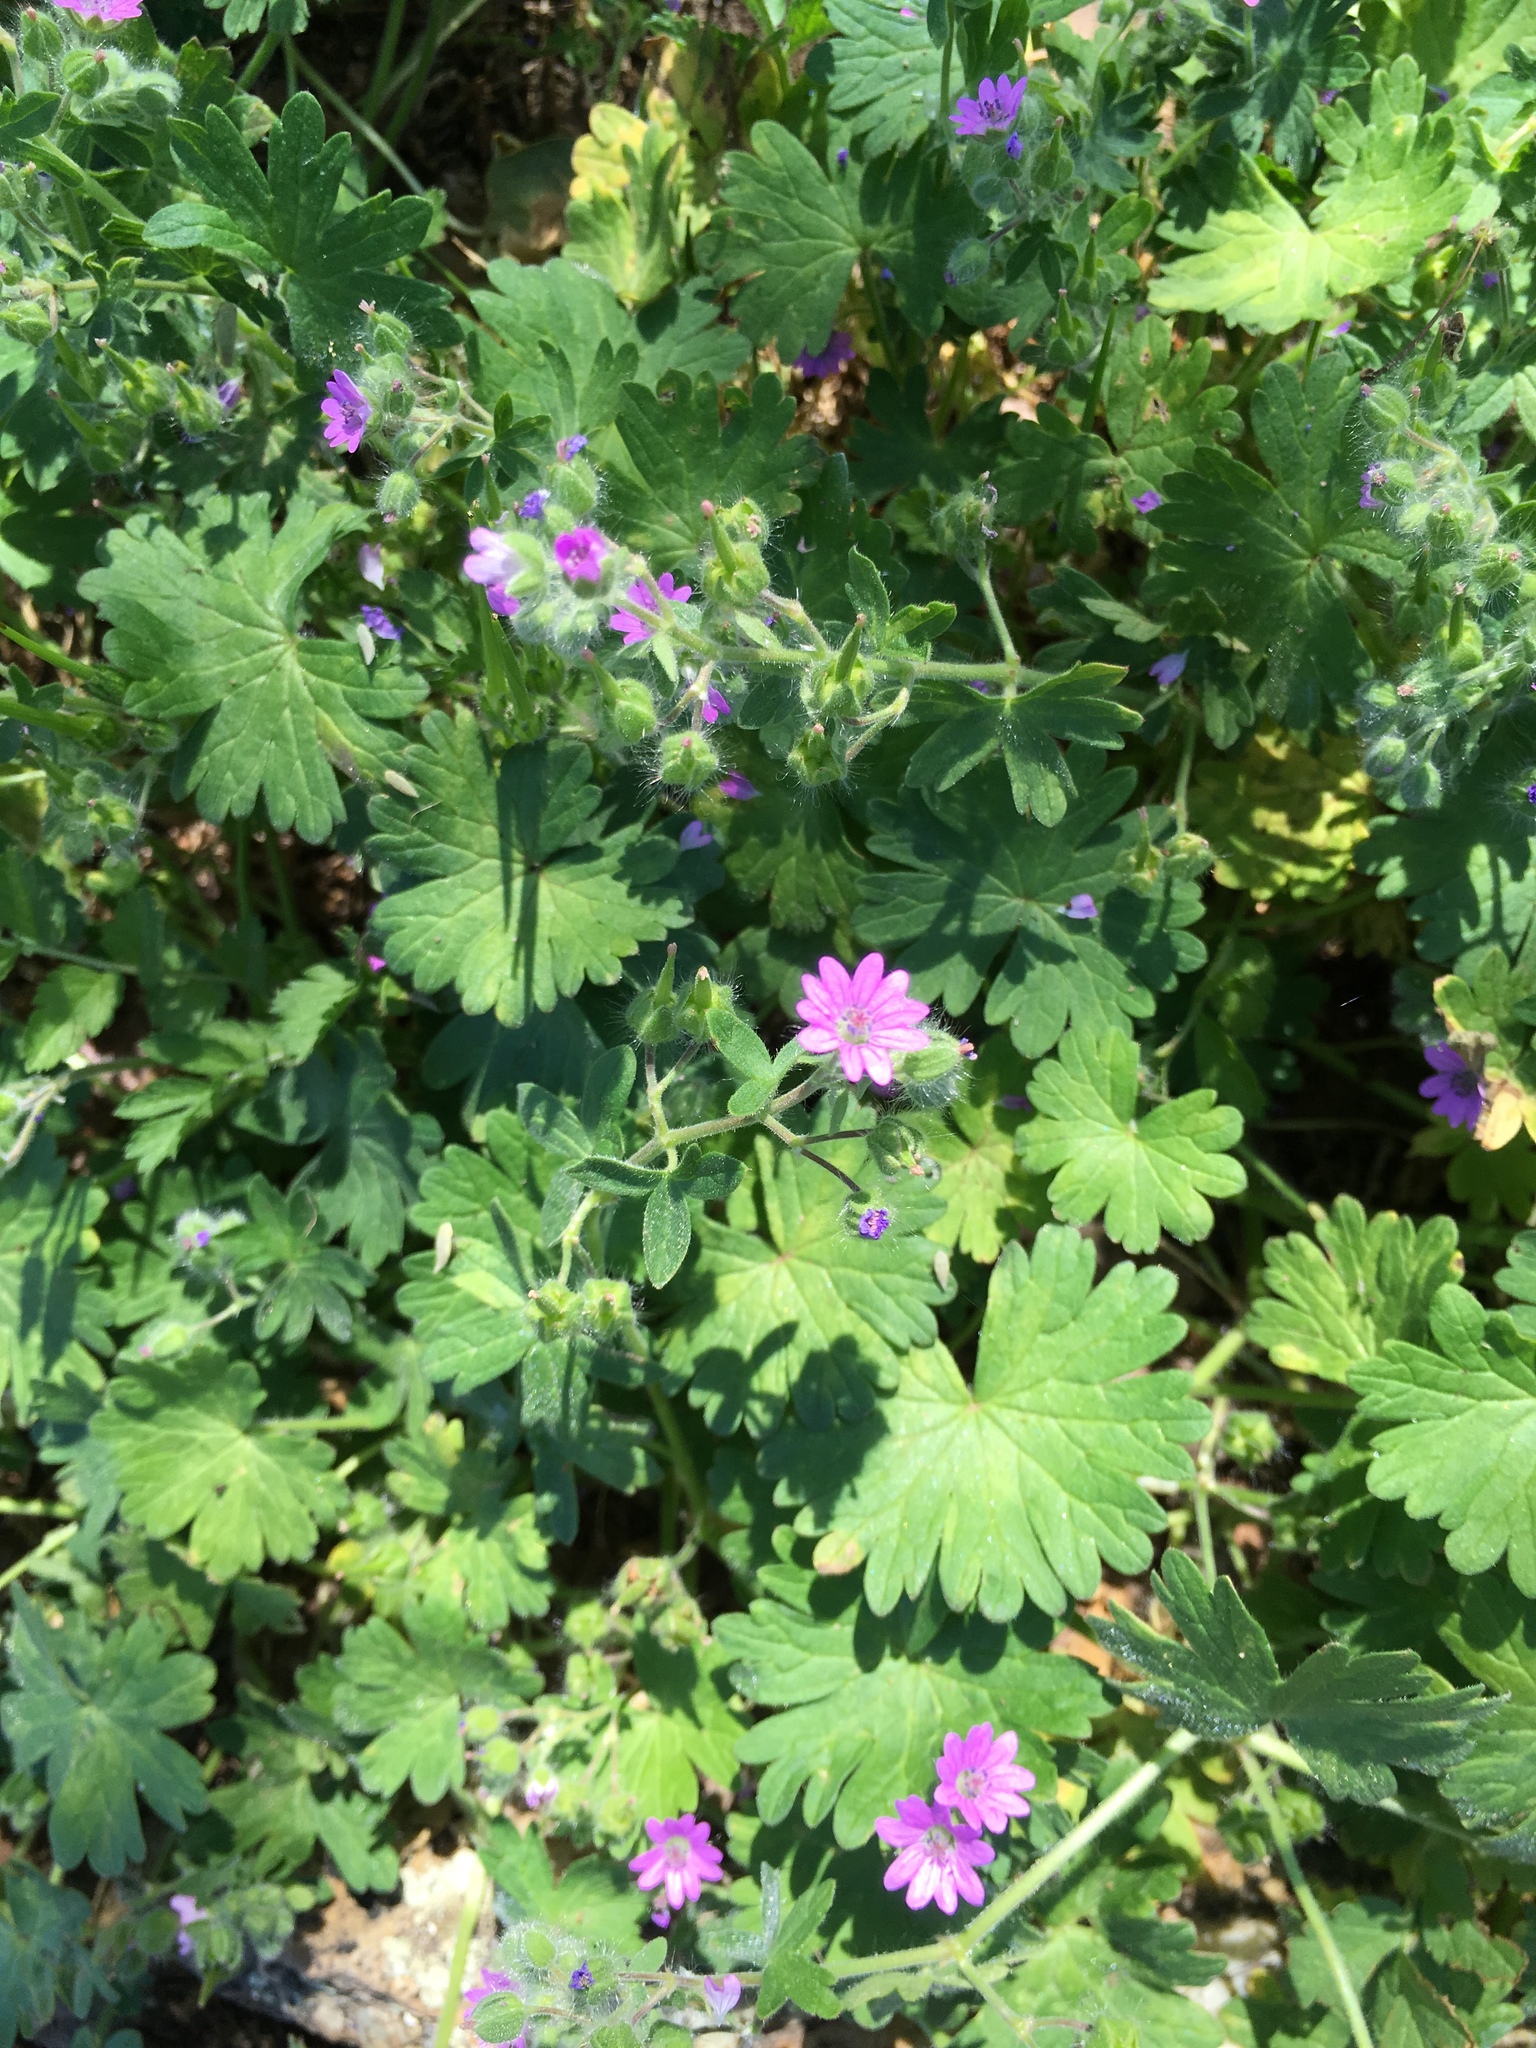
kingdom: Plantae
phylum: Tracheophyta
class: Magnoliopsida
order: Geraniales
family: Geraniaceae
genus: Geranium
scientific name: Geranium molle
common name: Dove's-foot crane's-bill
